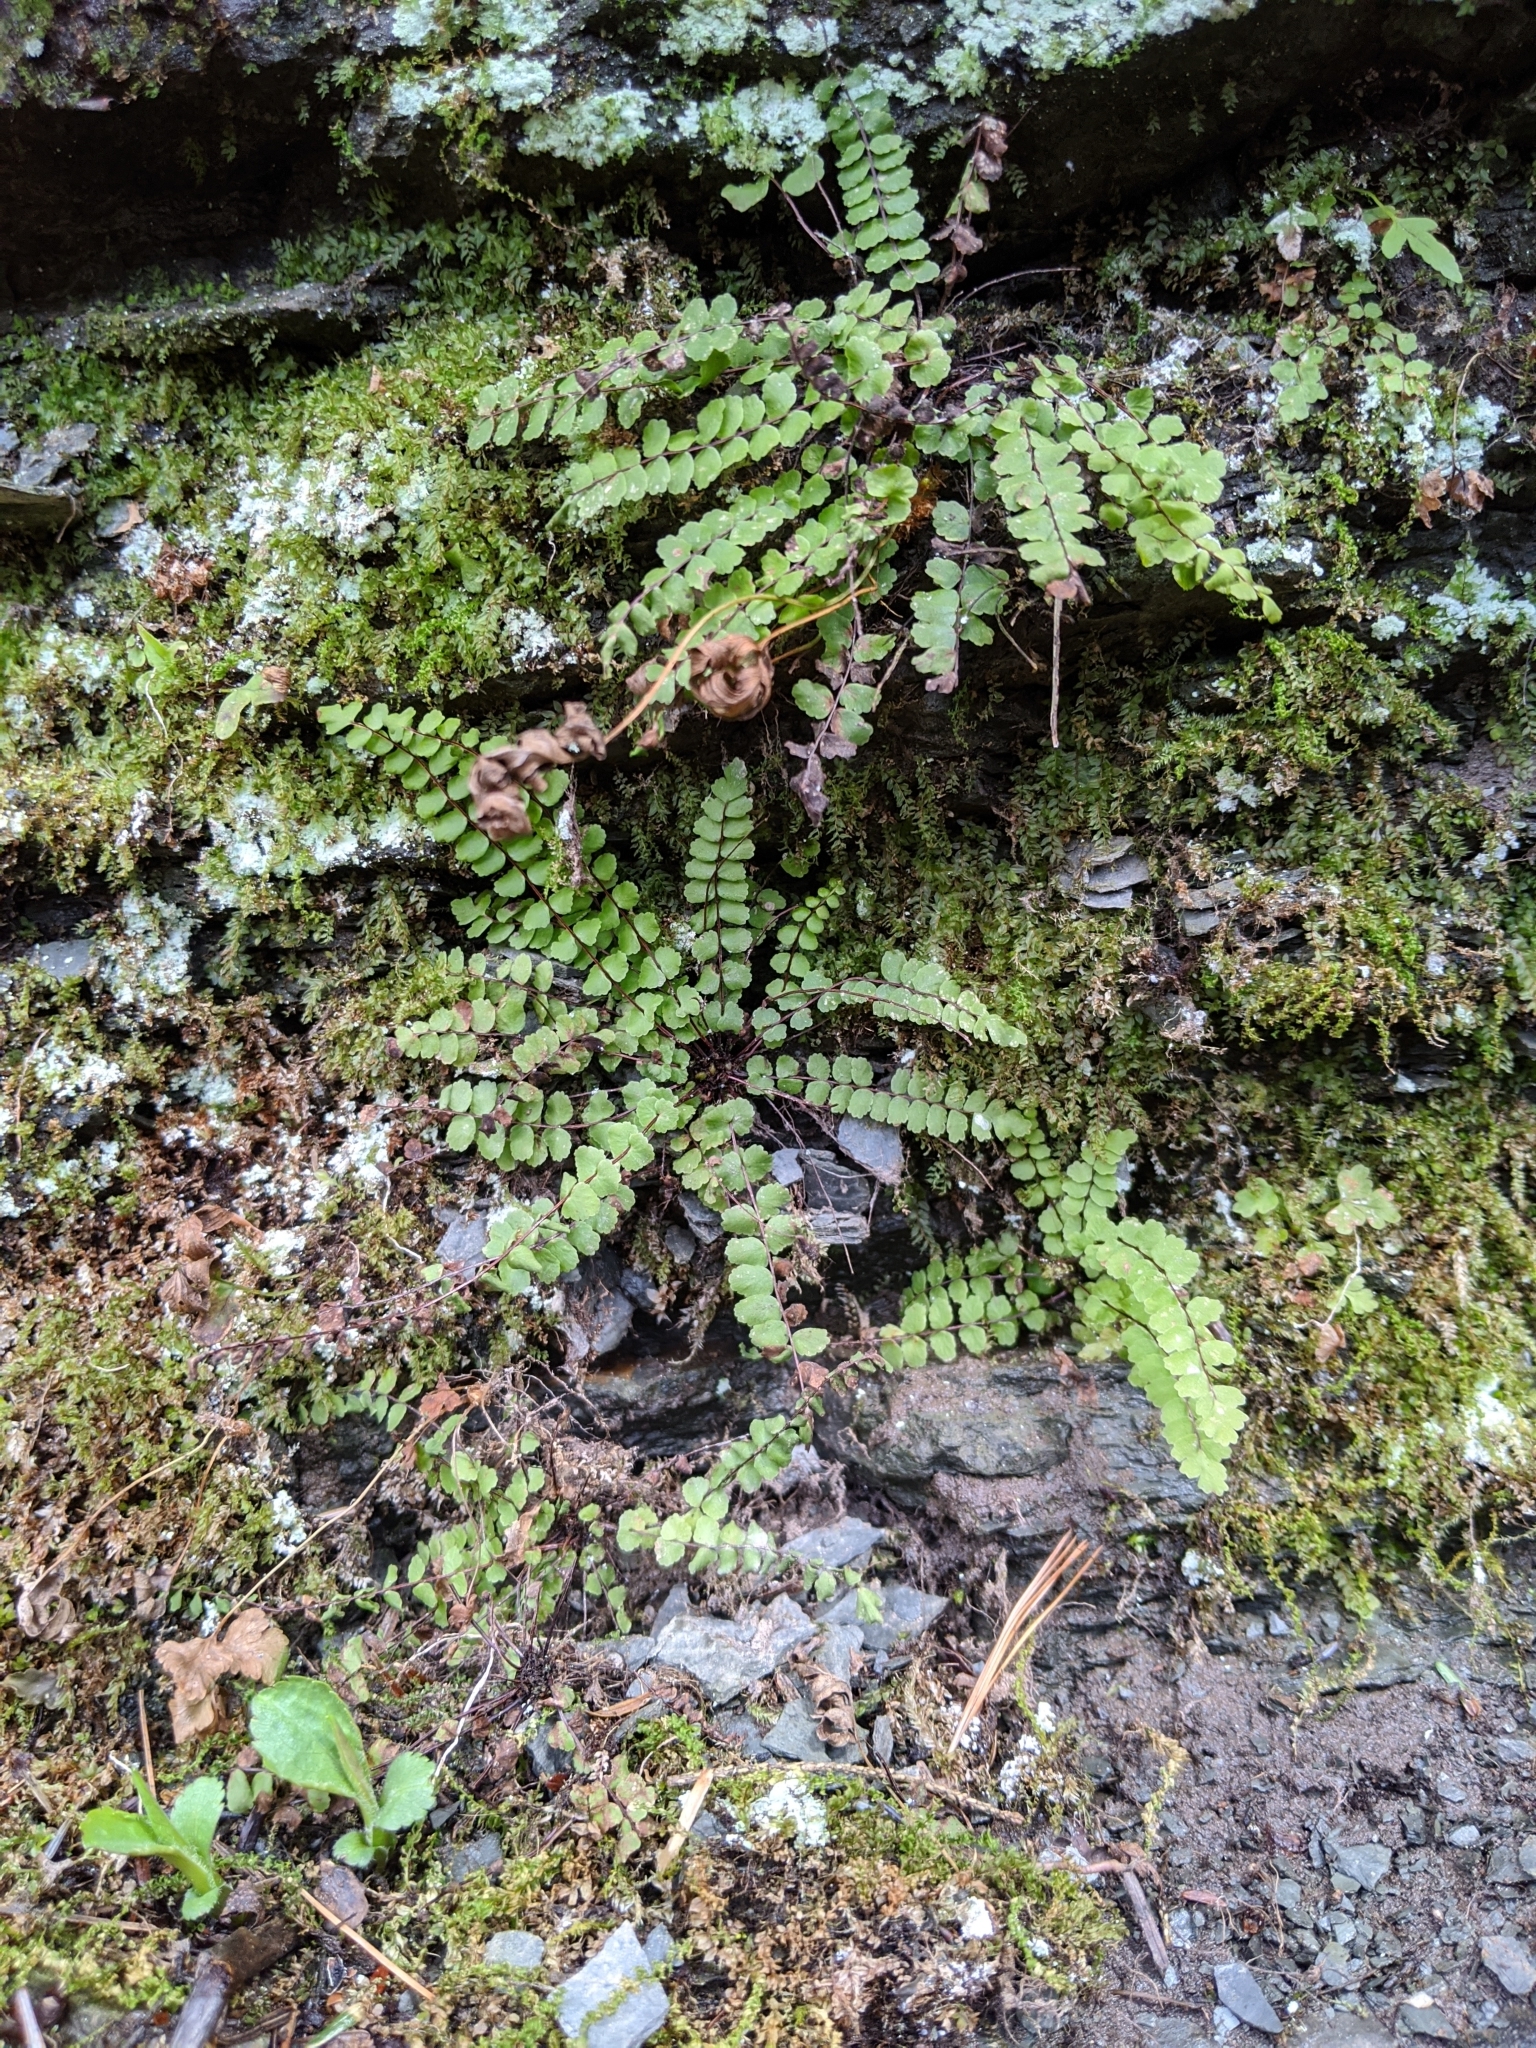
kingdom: Plantae
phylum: Tracheophyta
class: Polypodiopsida
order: Polypodiales
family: Aspleniaceae
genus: Asplenium
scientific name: Asplenium trichomanes
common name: Maidenhair spleenwort
